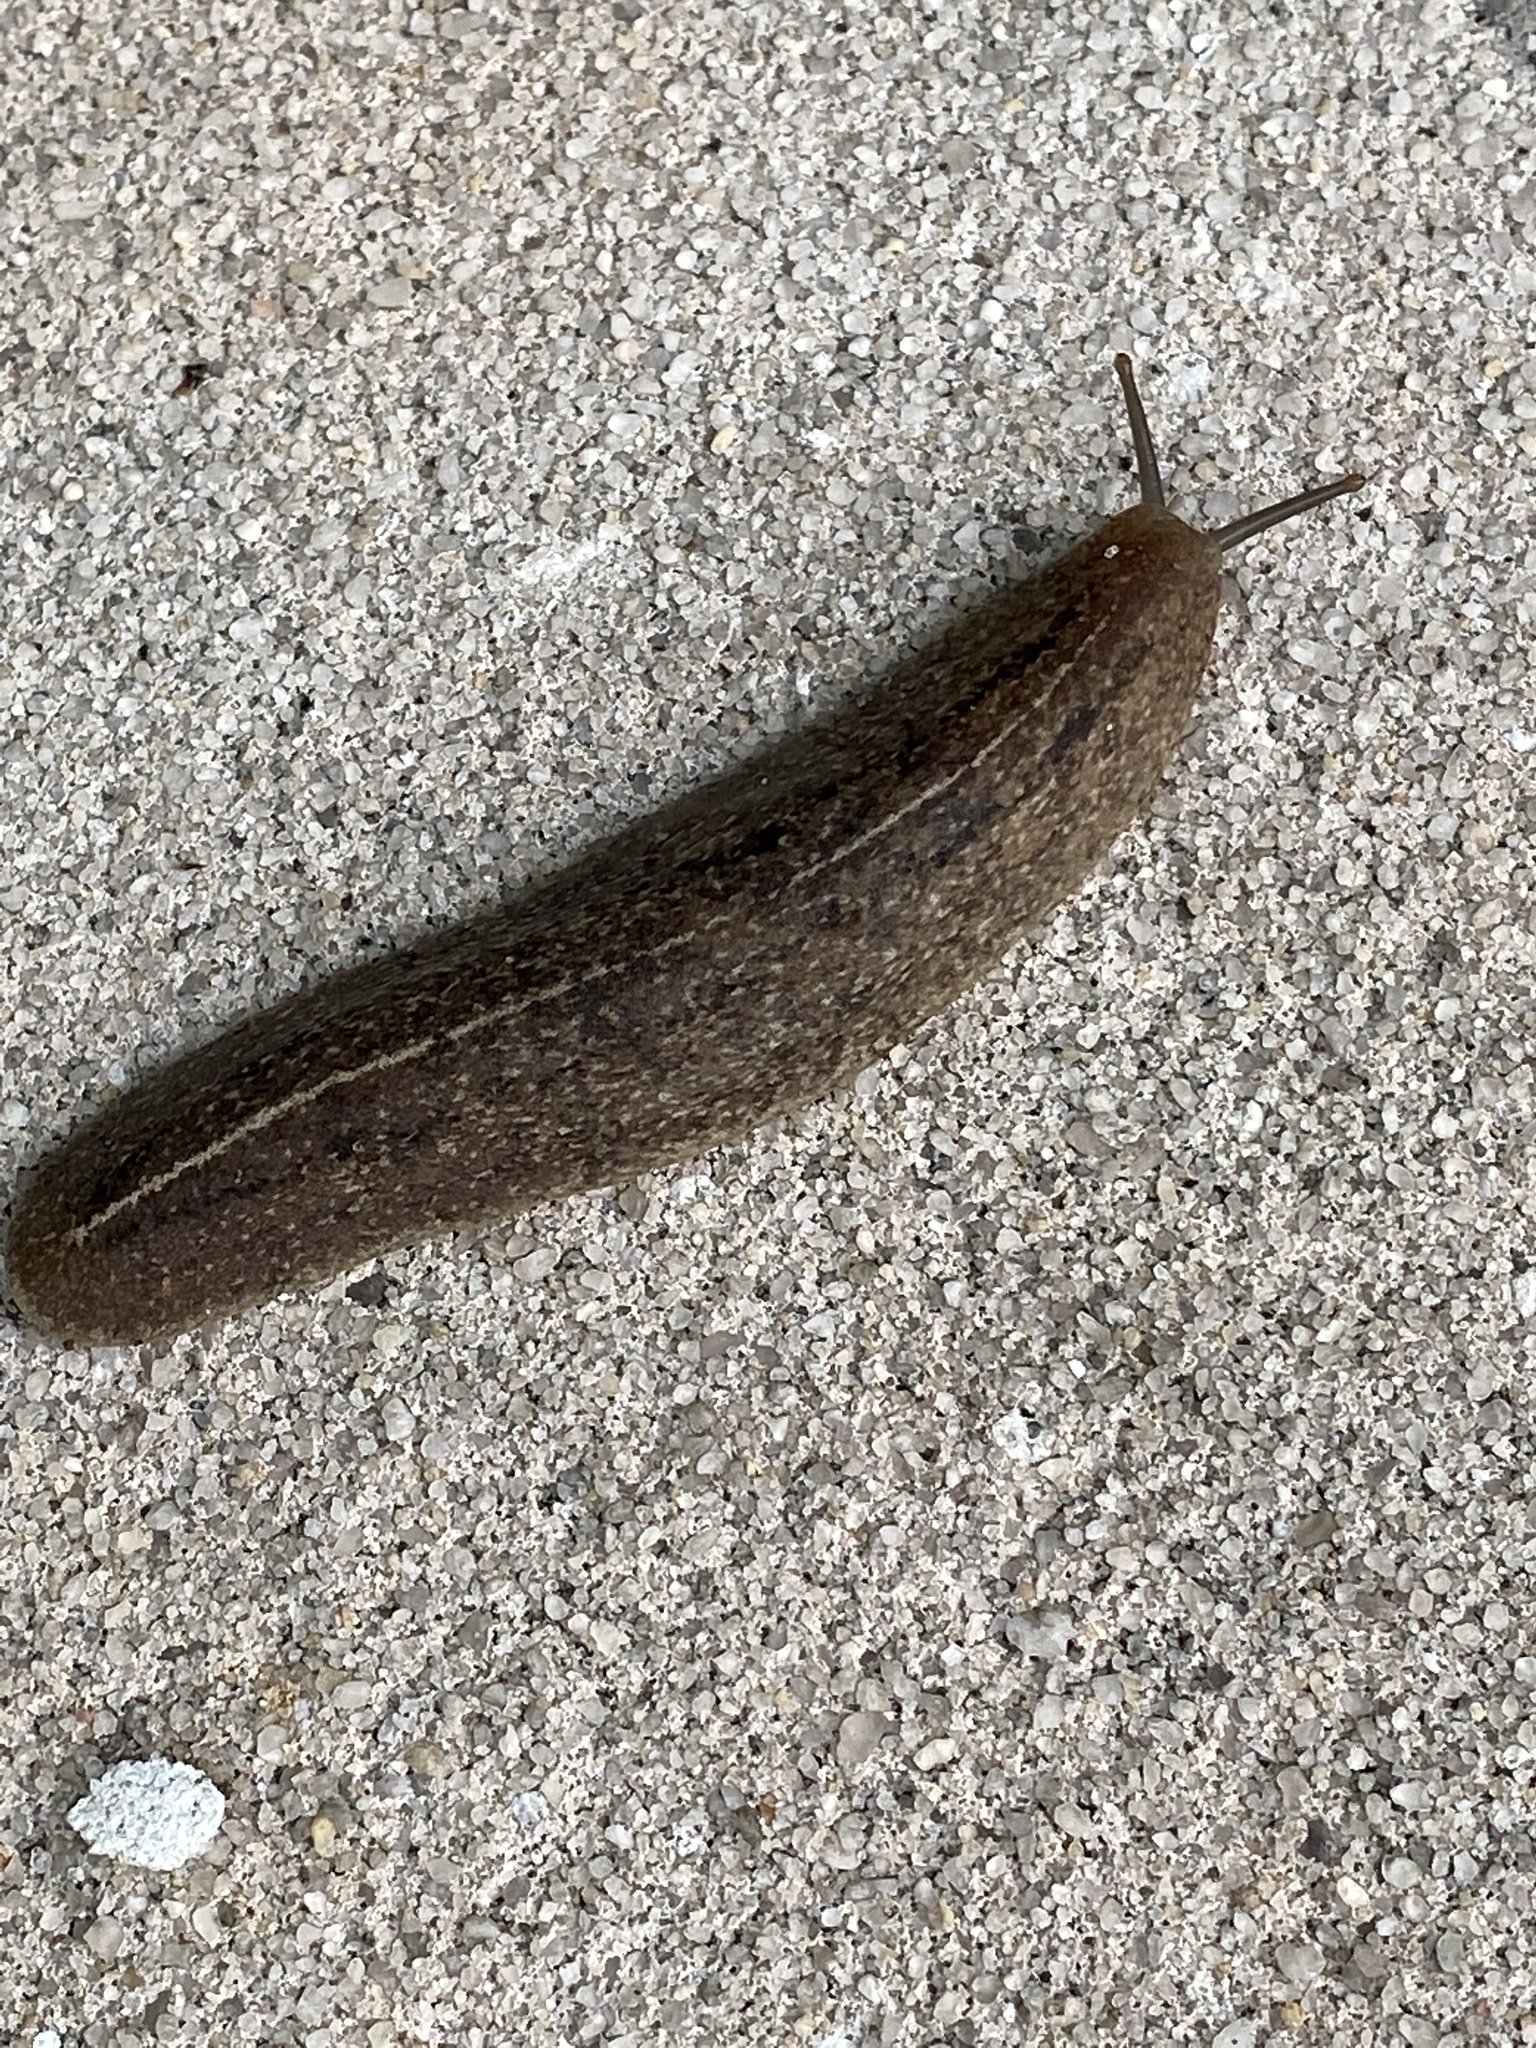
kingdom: Animalia
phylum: Mollusca
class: Gastropoda
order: Systellommatophora
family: Veronicellidae
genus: Leidyula
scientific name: Leidyula floridana
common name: Florida leatherleaf
